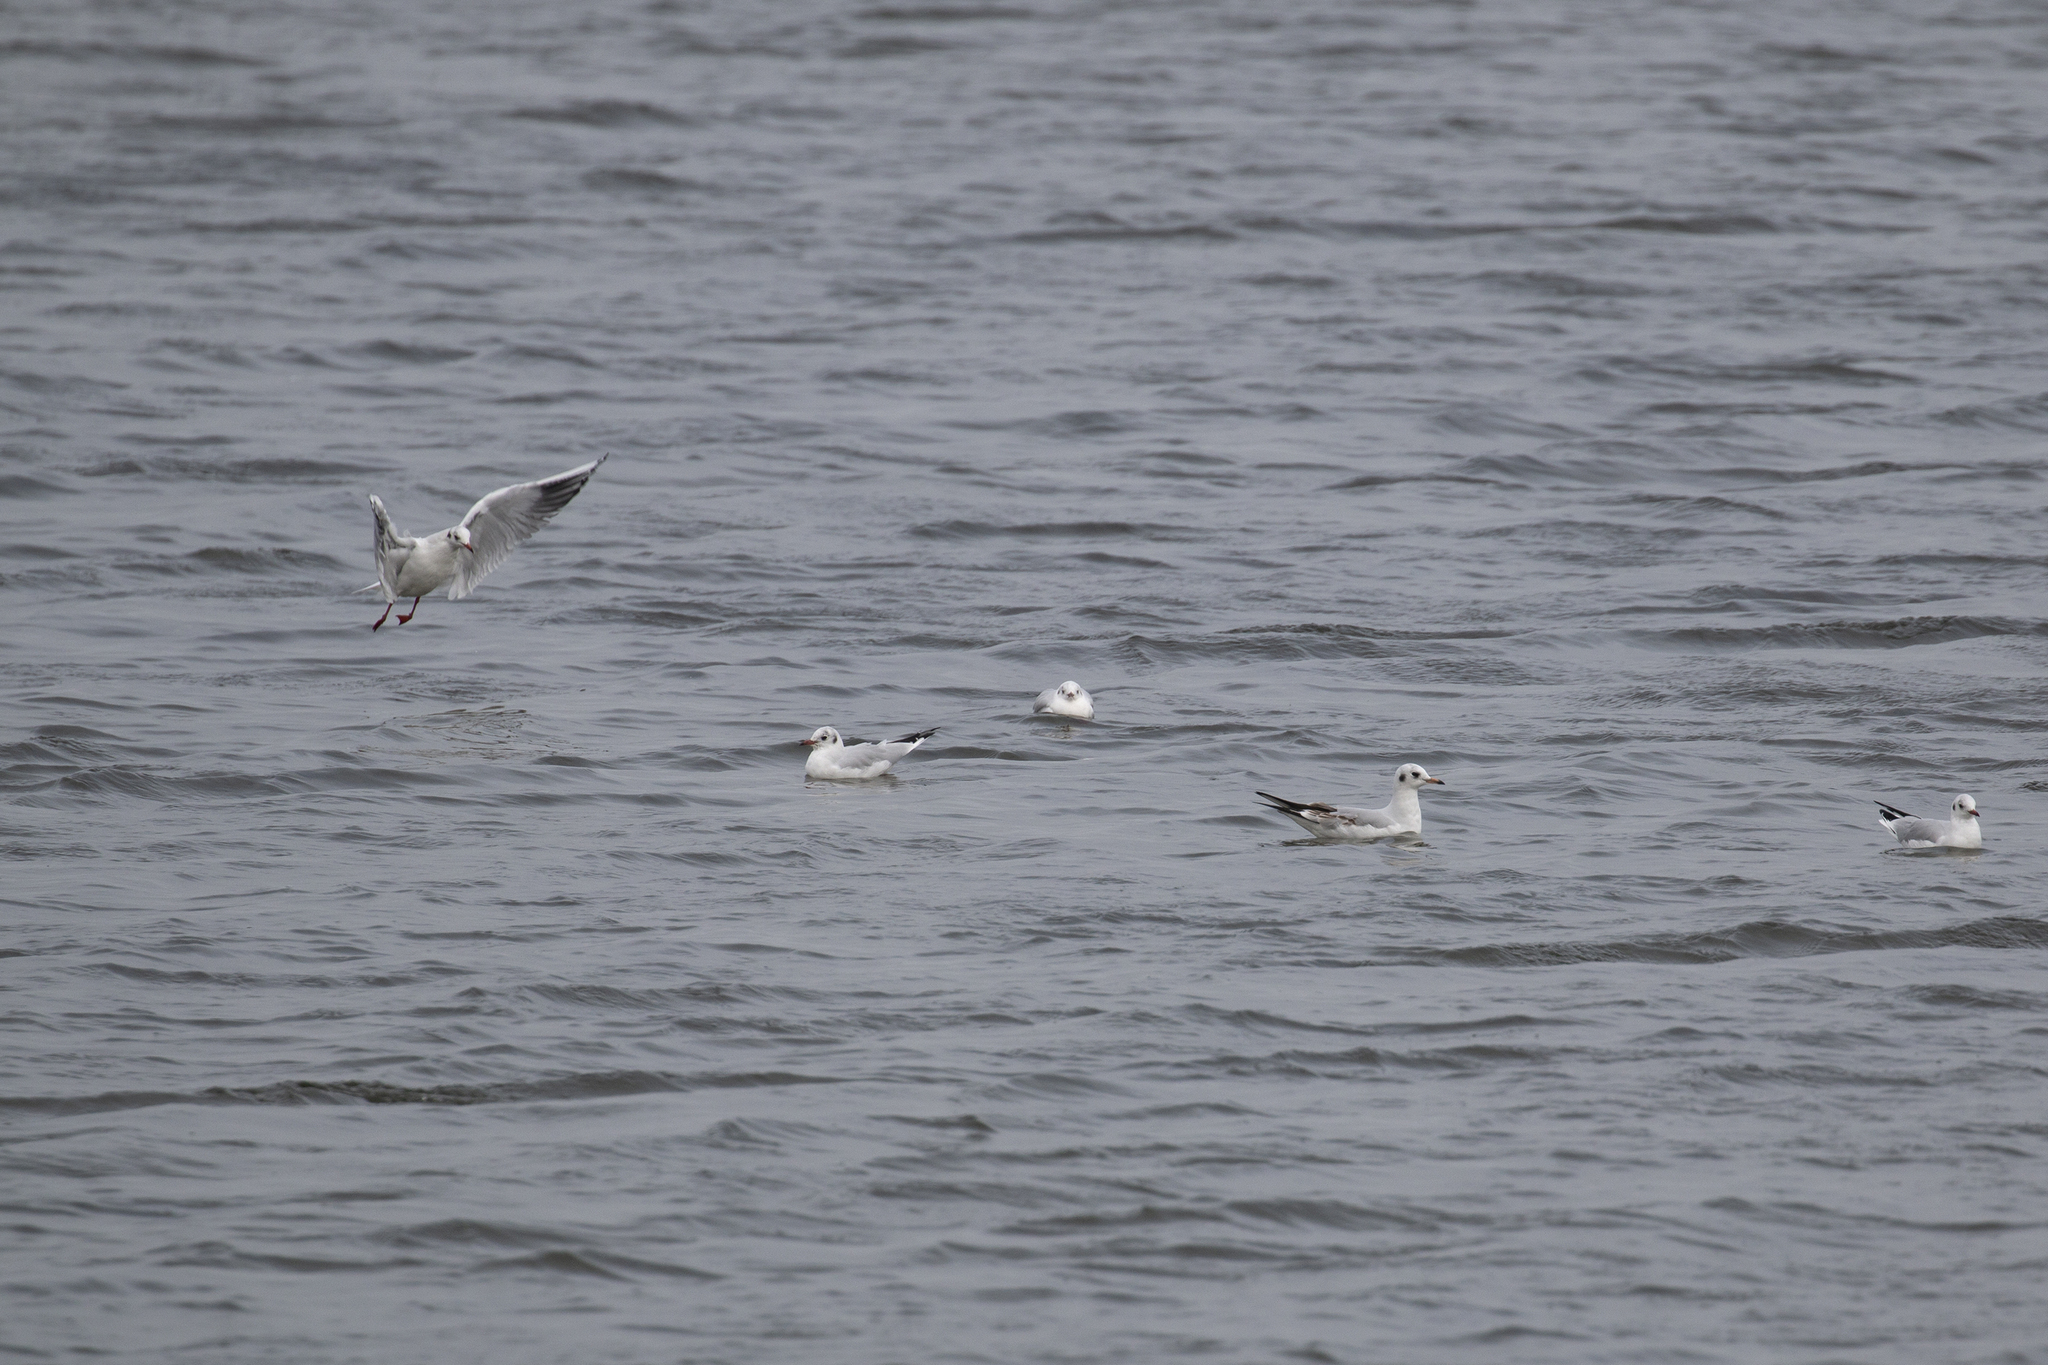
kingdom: Animalia
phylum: Chordata
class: Aves
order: Charadriiformes
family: Laridae
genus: Chroicocephalus
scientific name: Chroicocephalus ridibundus
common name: Black-headed gull
